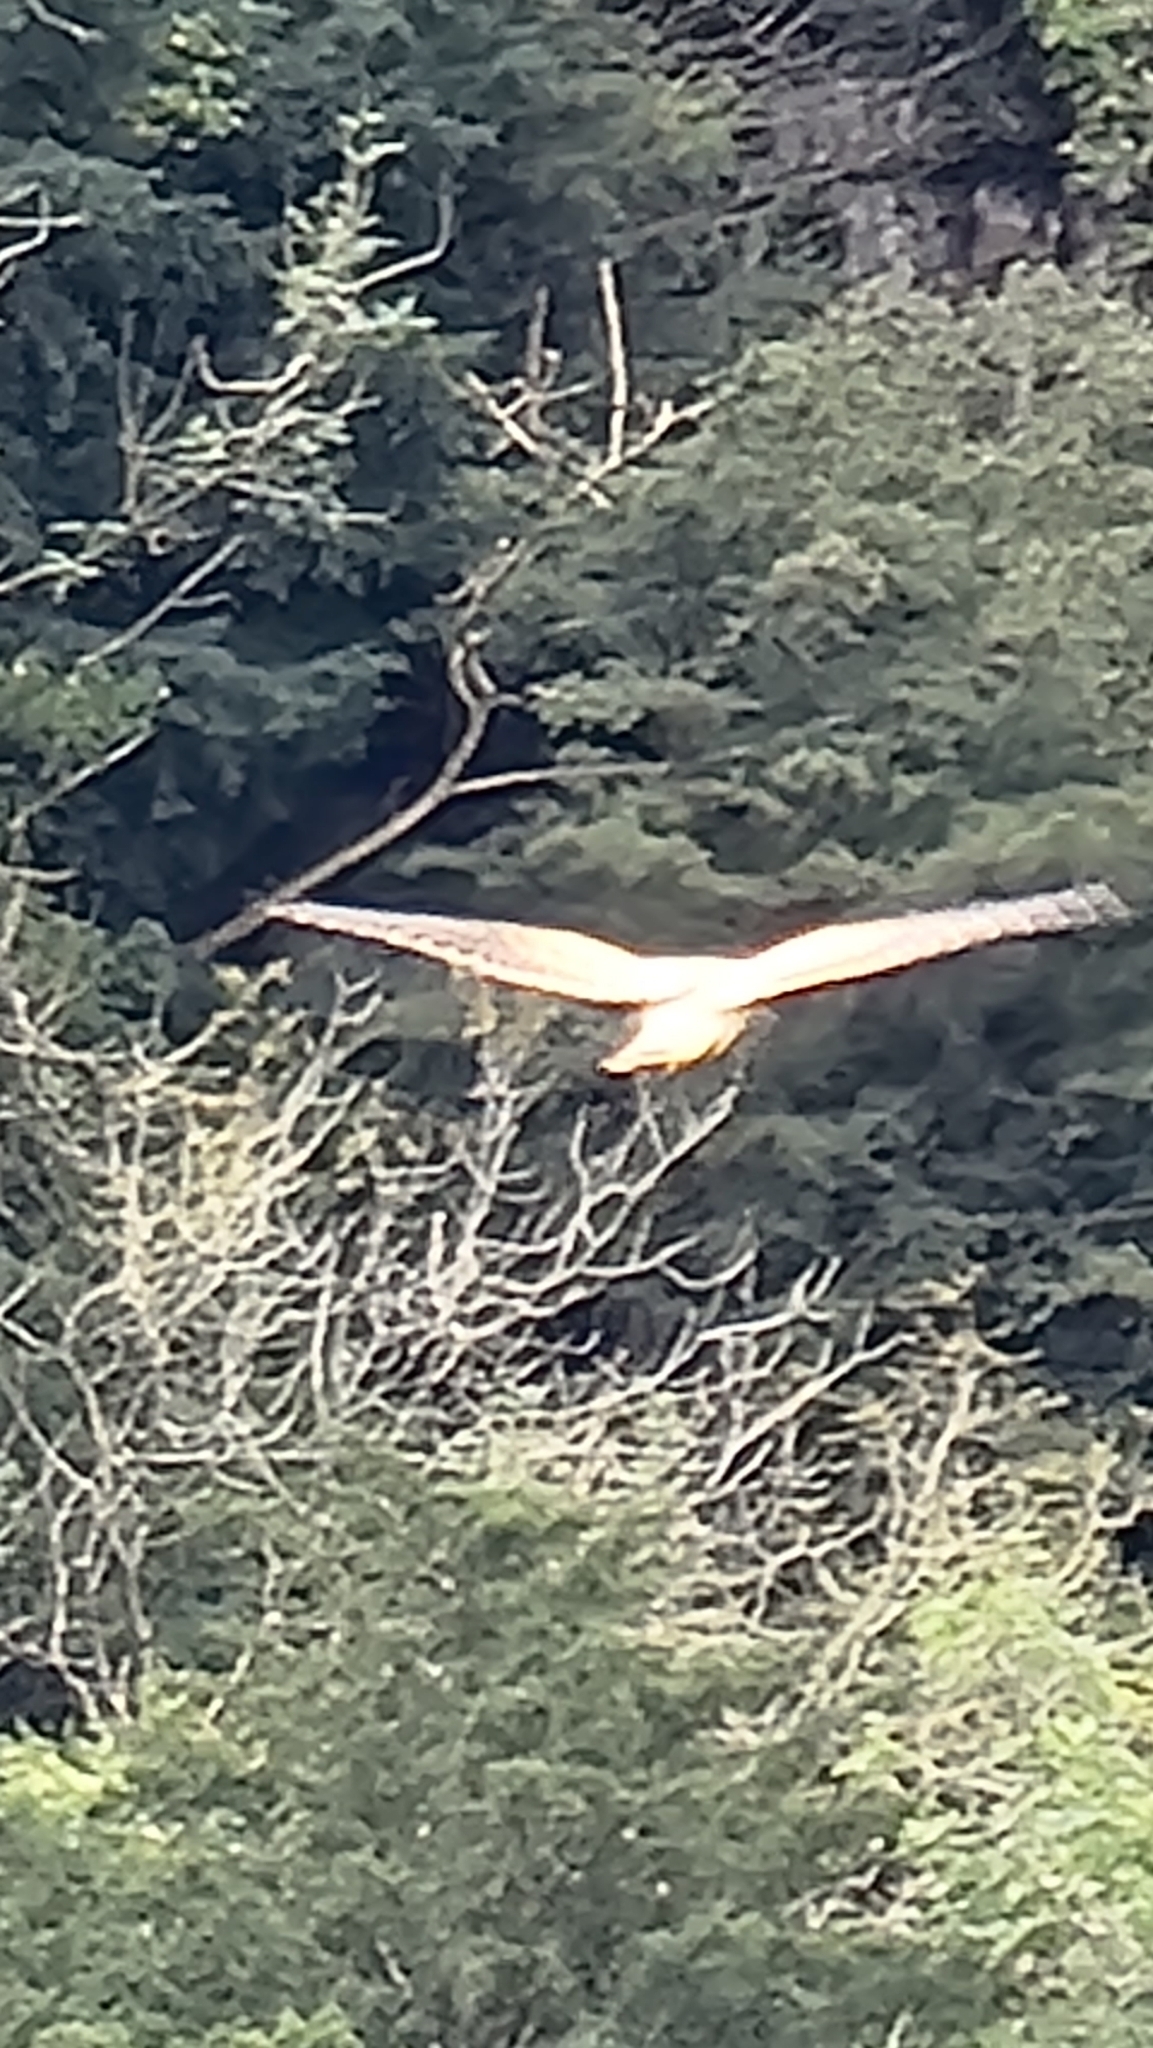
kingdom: Animalia
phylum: Chordata
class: Aves
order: Falconiformes
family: Falconidae
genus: Falco
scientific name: Falco tinnunculus
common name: Common kestrel
